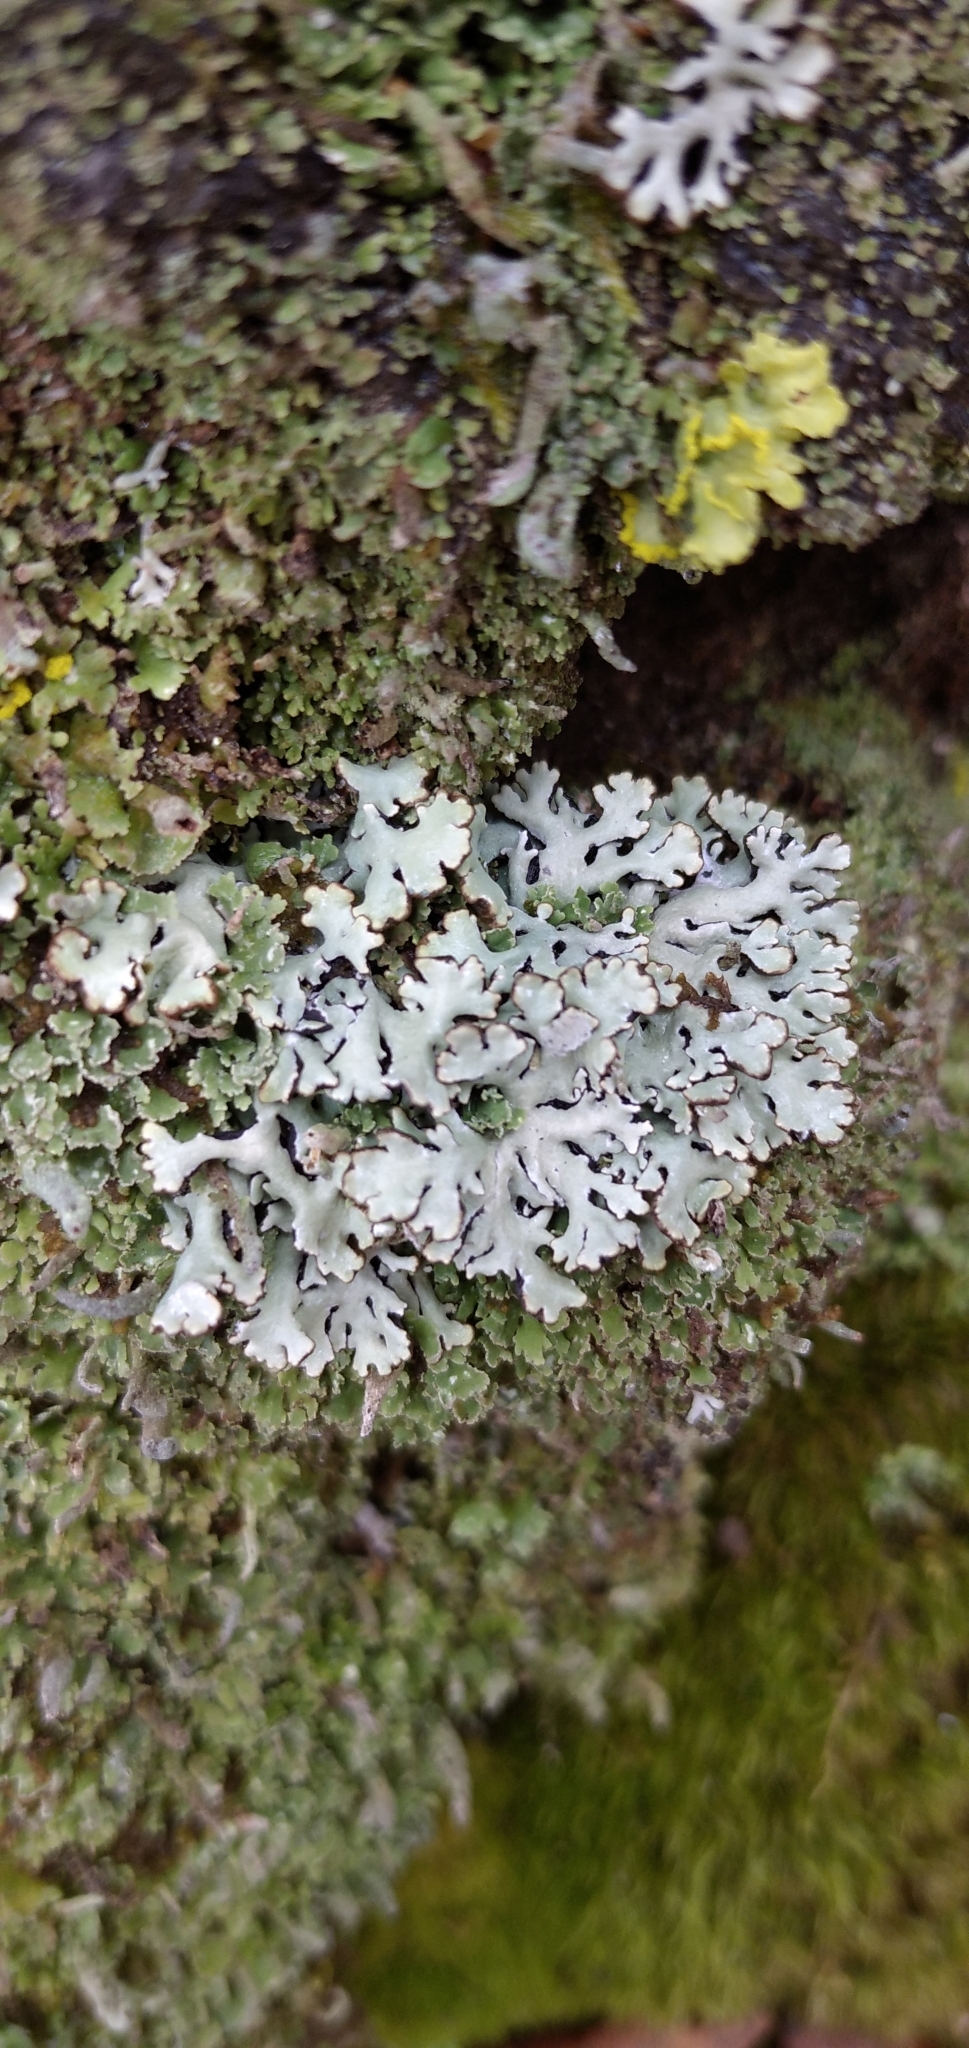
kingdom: Fungi
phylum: Ascomycota
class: Lecanoromycetes
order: Lecanorales
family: Parmeliaceae
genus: Hypogymnia
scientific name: Hypogymnia physodes
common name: Dark crottle
